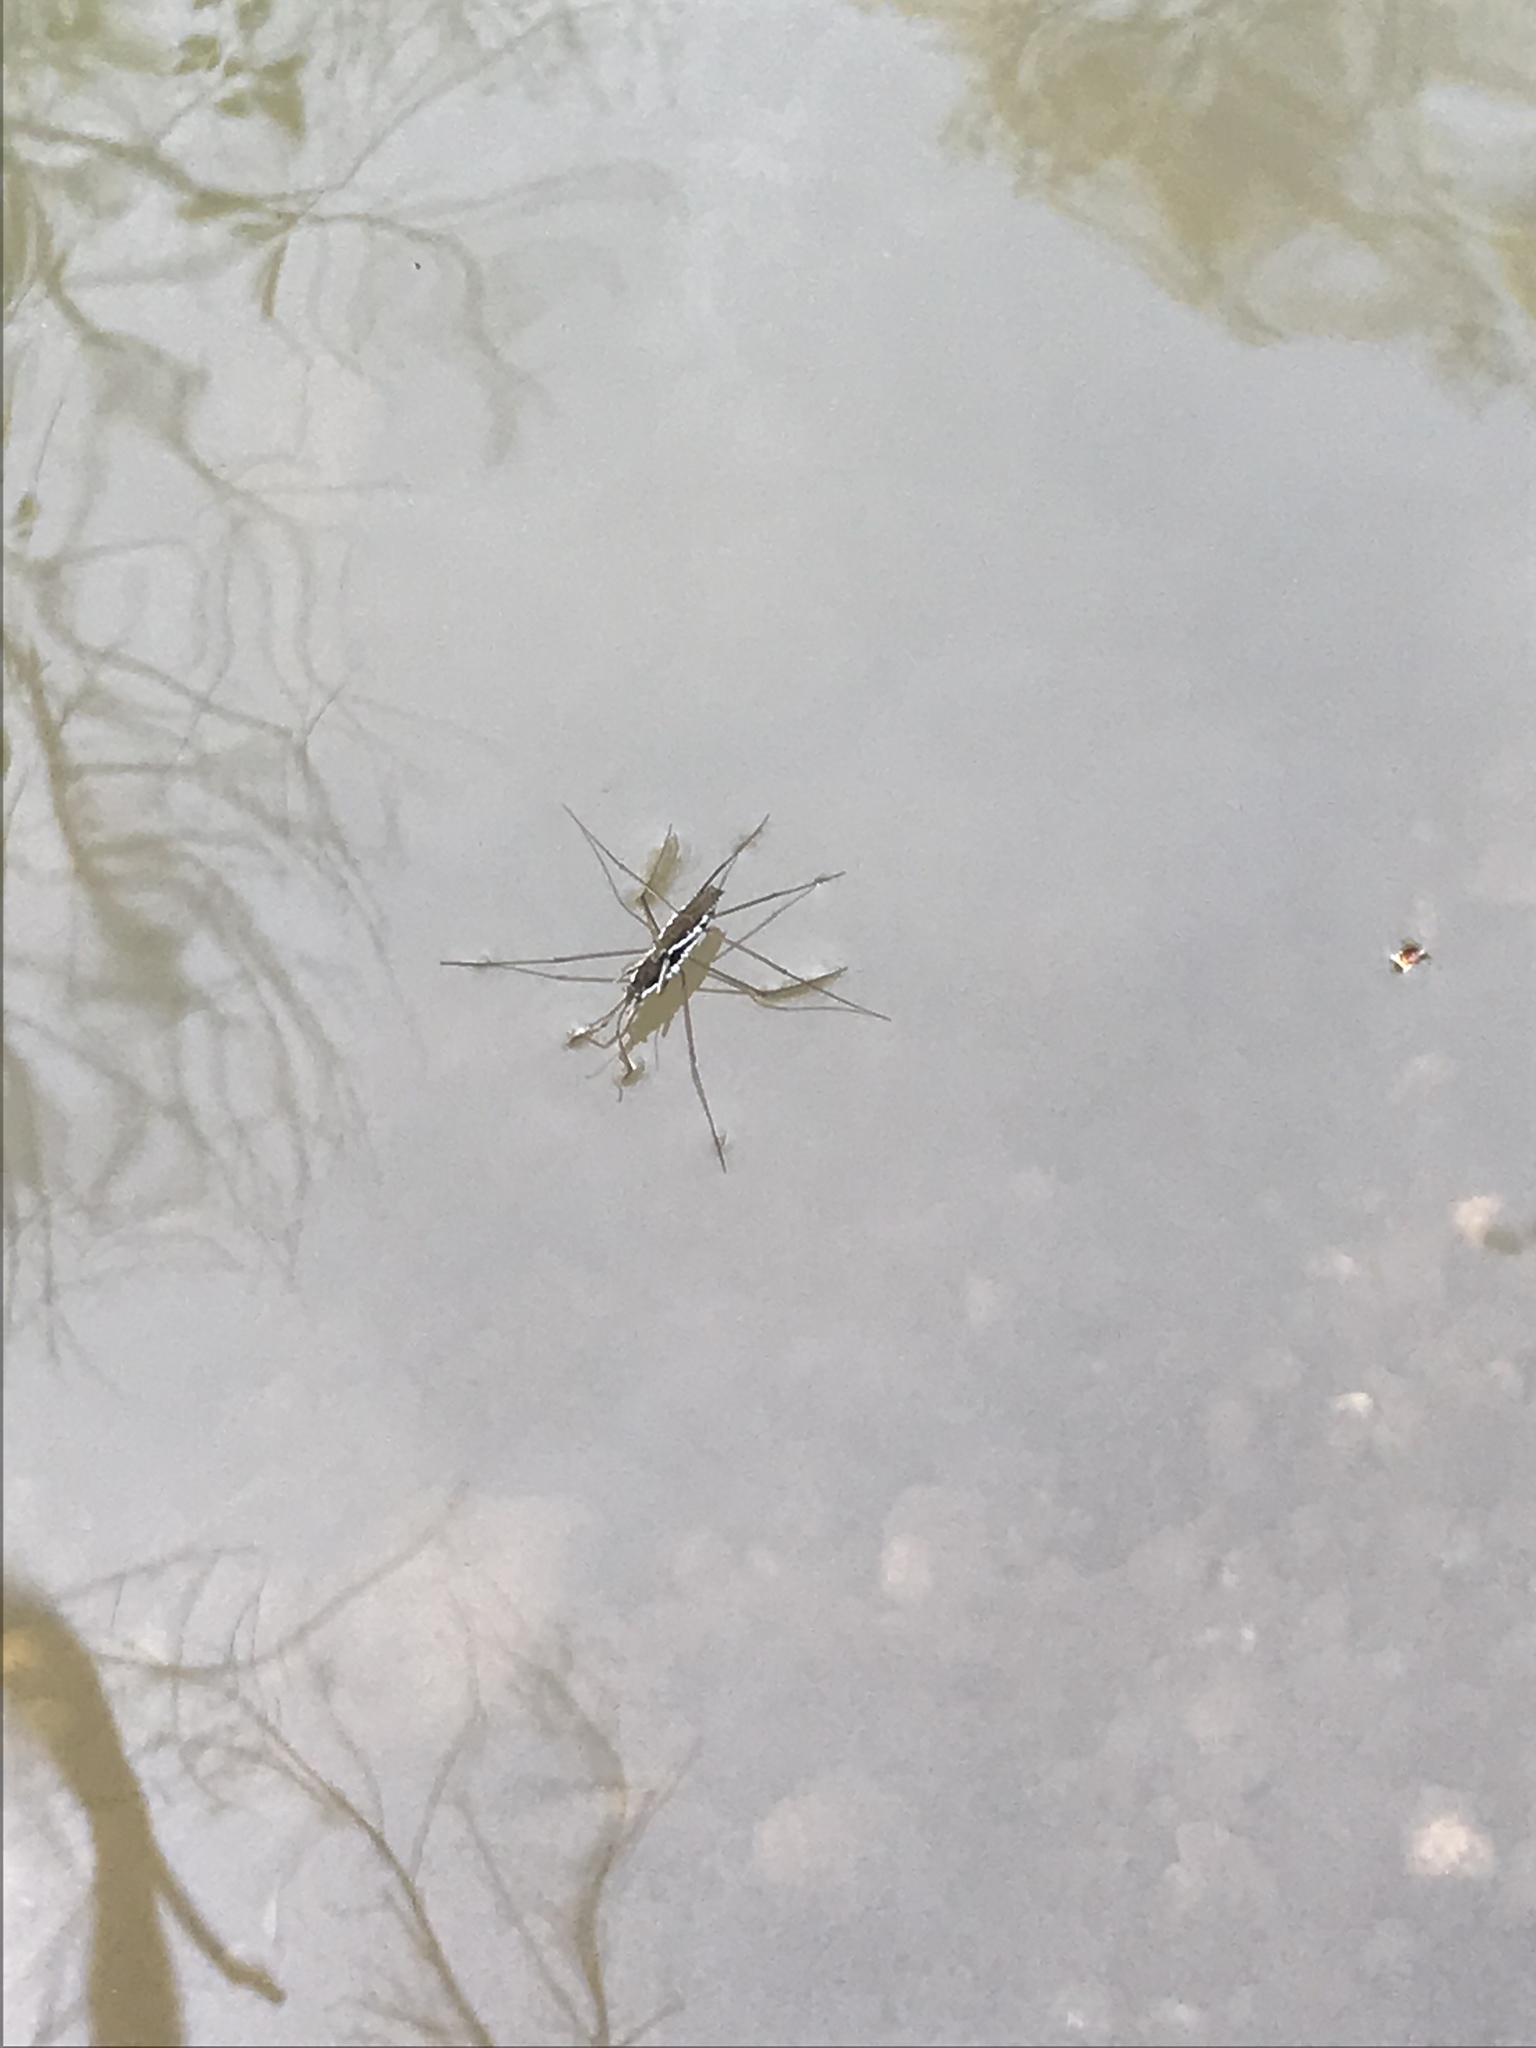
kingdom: Animalia
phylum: Arthropoda
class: Insecta
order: Hemiptera
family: Gerridae
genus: Aquarius
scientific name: Aquarius remigis
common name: Common water strider
